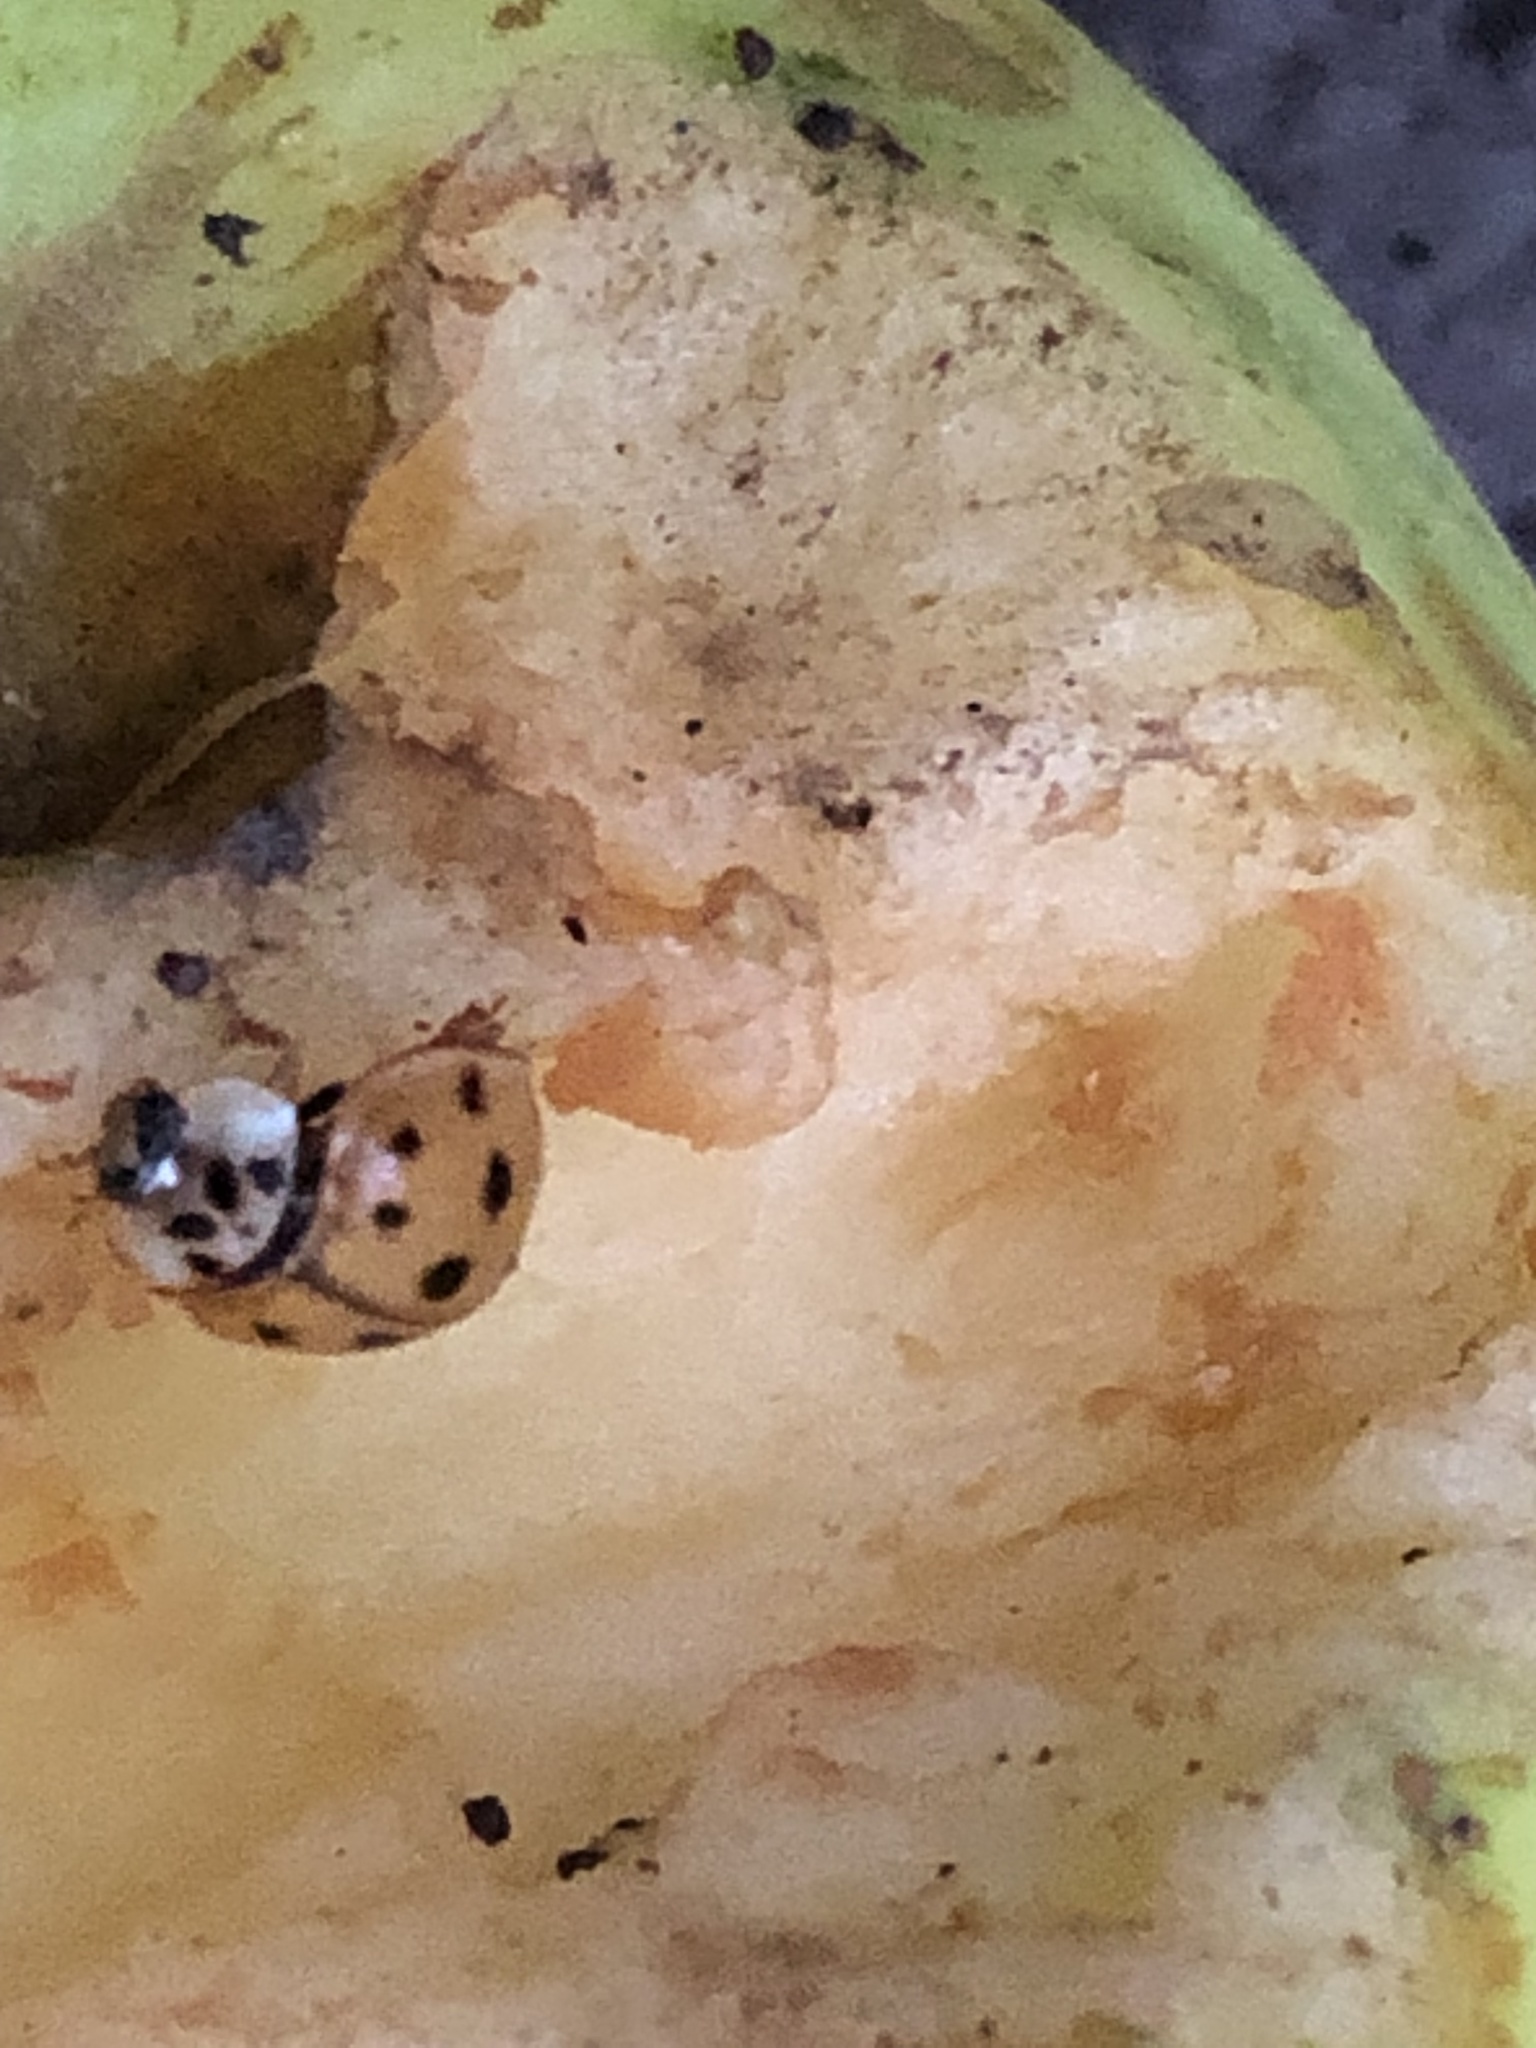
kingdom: Animalia
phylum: Arthropoda
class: Insecta
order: Coleoptera
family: Coccinellidae
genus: Harmonia
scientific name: Harmonia axyridis
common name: Harlequin ladybird
